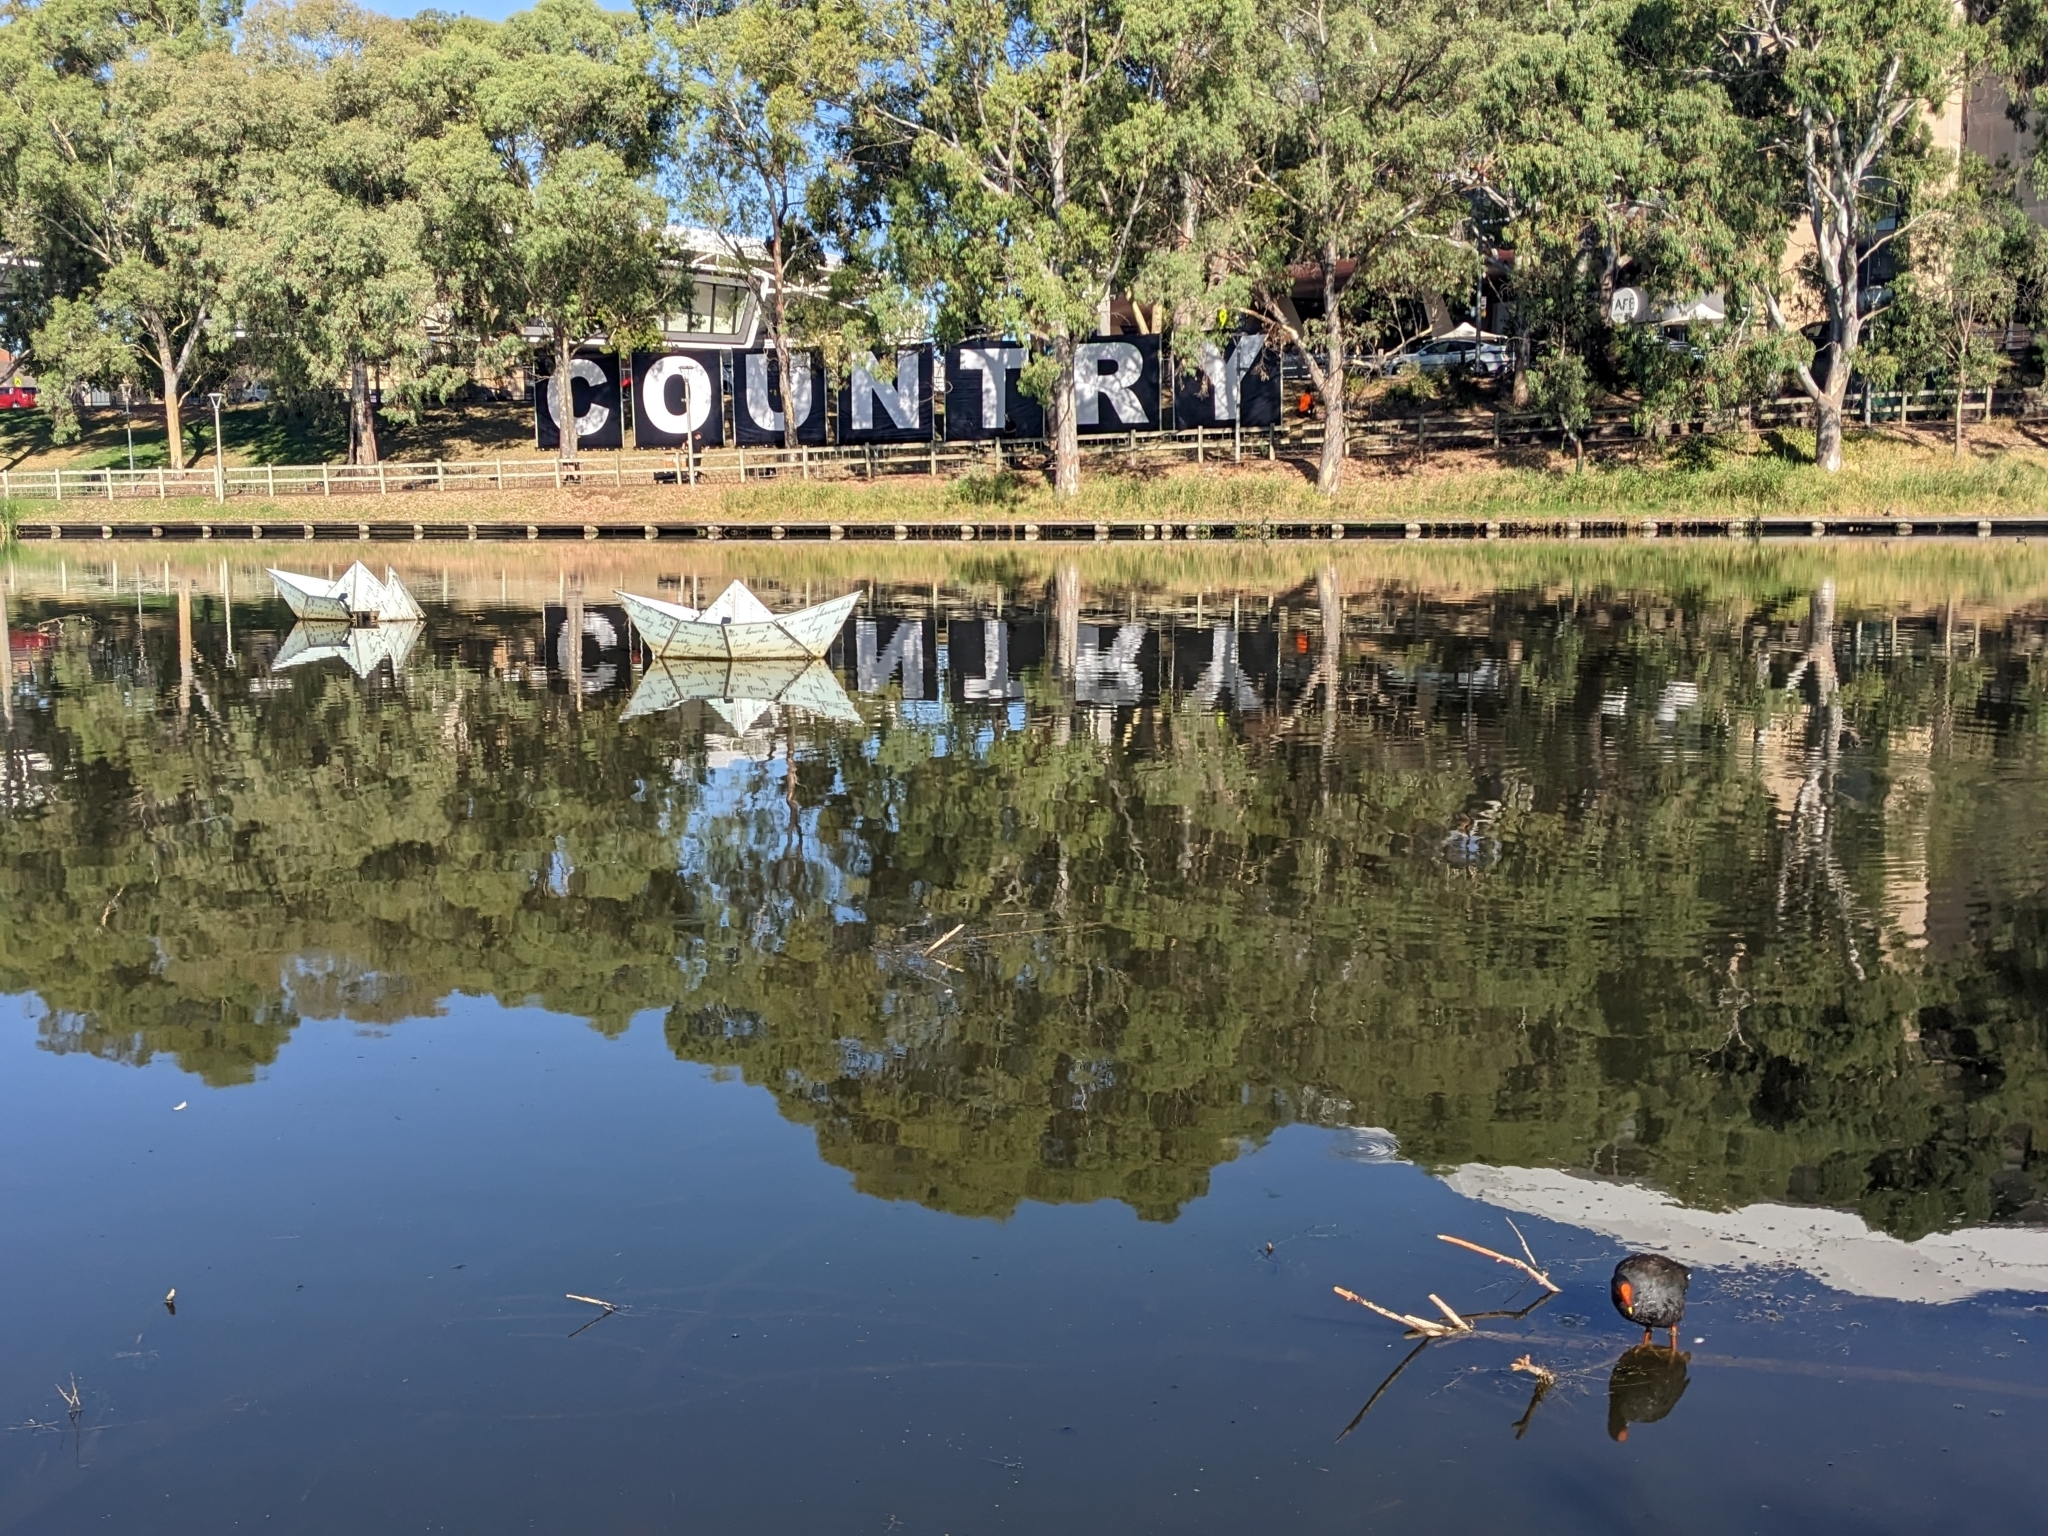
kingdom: Animalia
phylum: Chordata
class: Aves
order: Gruiformes
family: Rallidae
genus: Gallinula
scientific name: Gallinula tenebrosa
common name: Dusky moorhen
